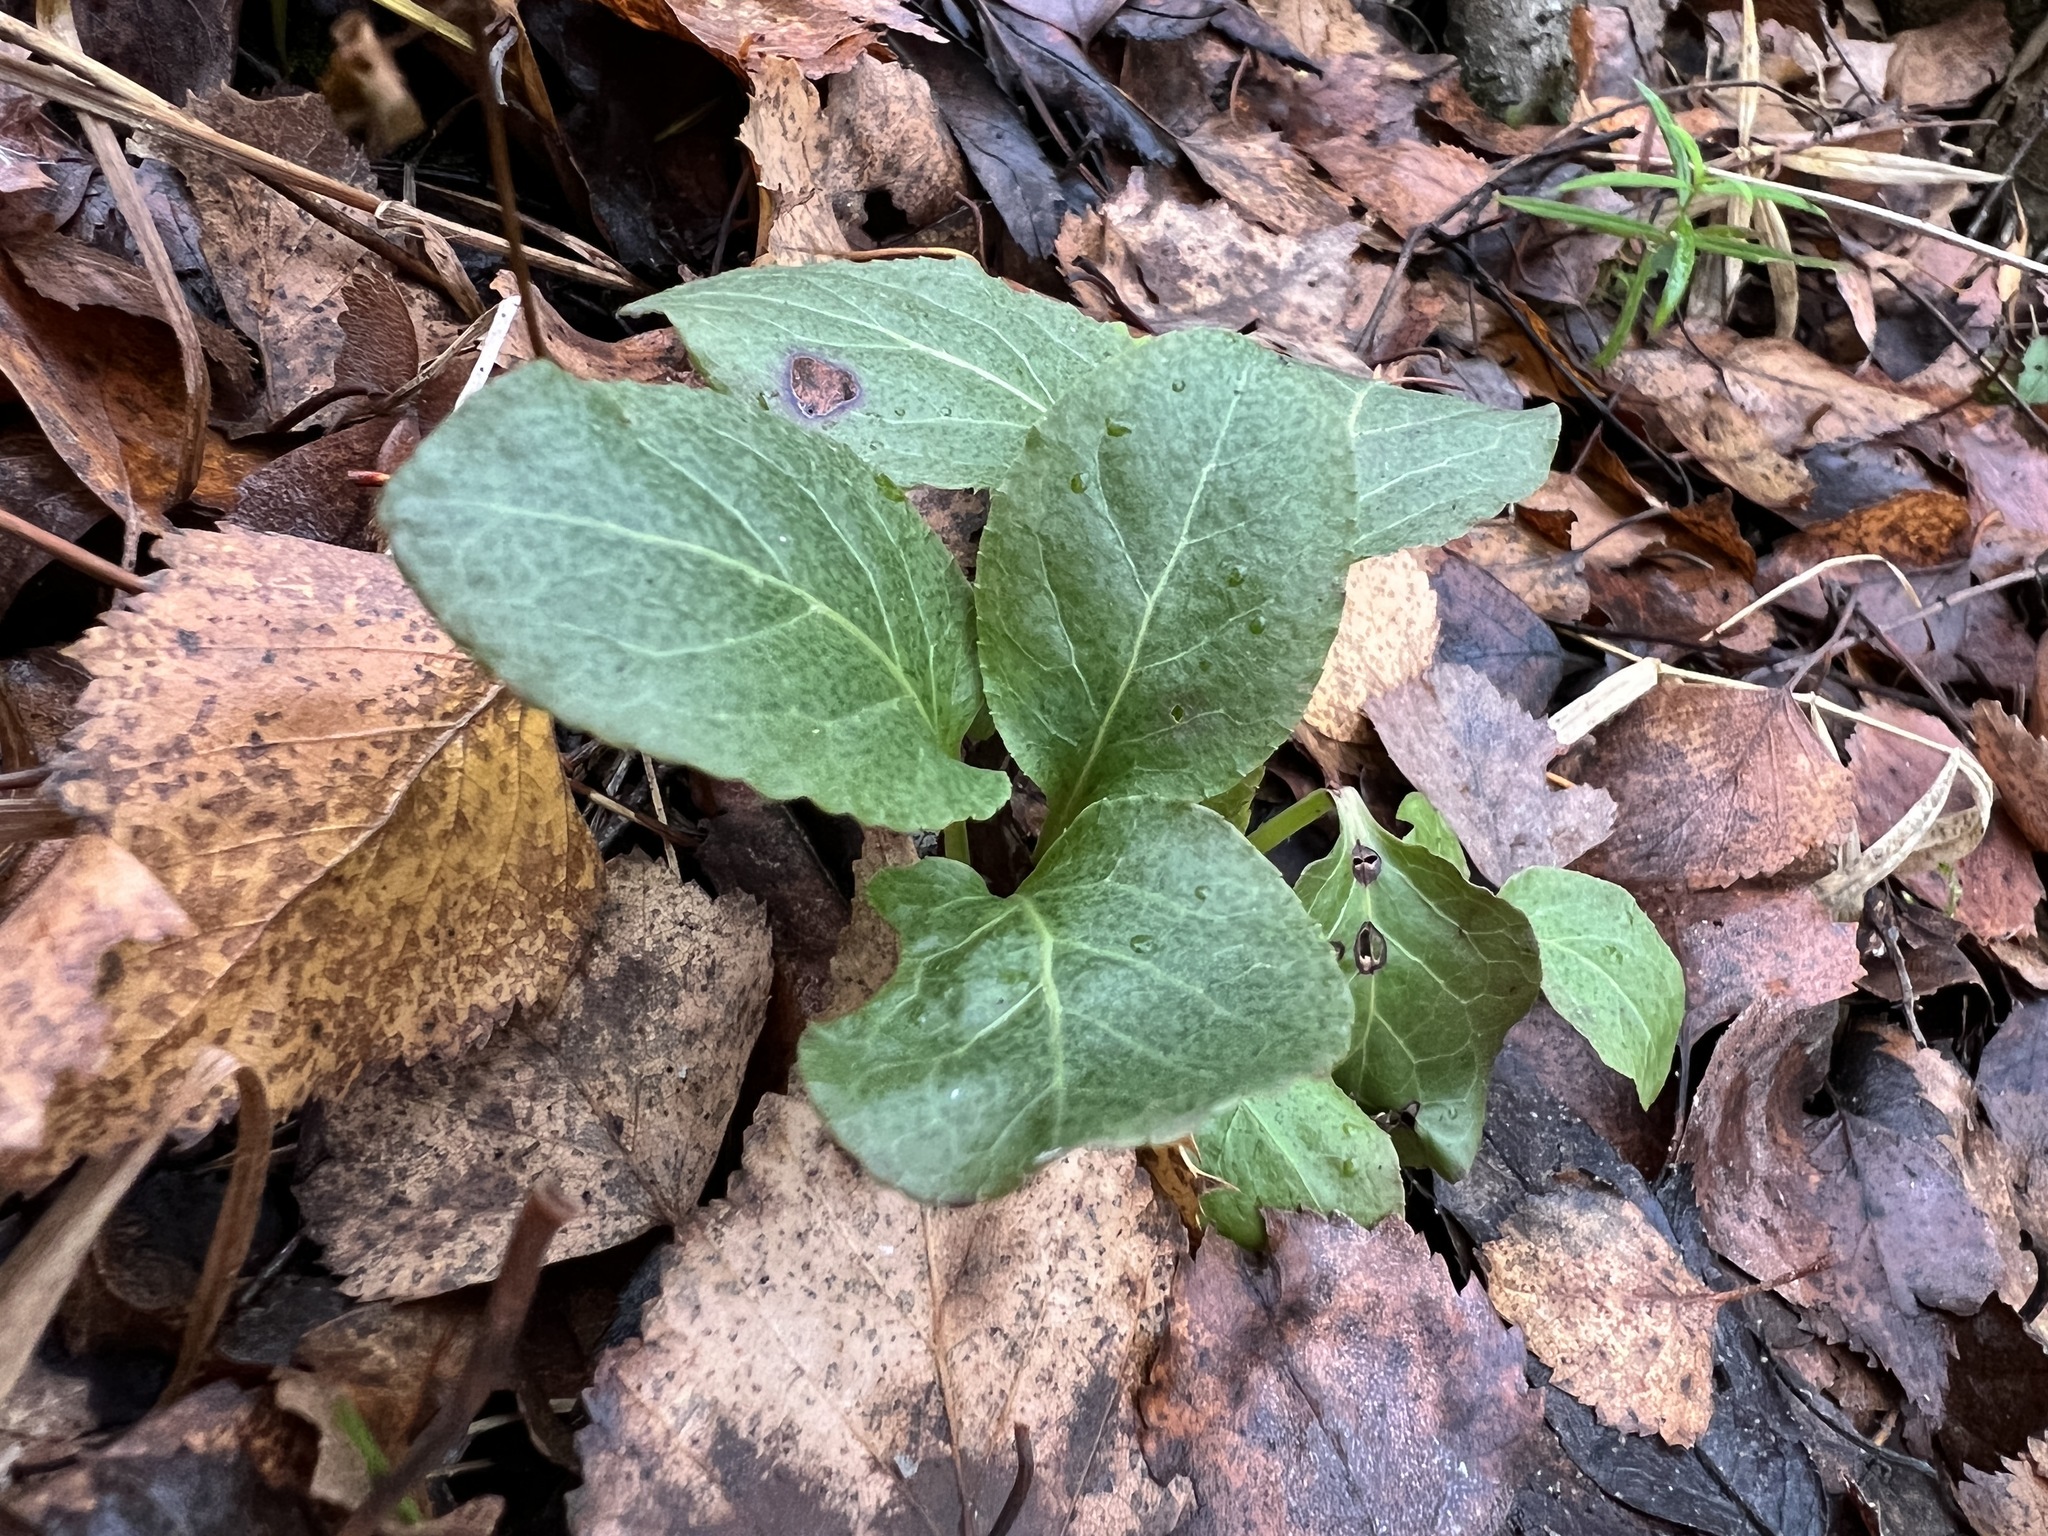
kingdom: Plantae
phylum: Tracheophyta
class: Magnoliopsida
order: Ericales
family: Ericaceae
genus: Pyrola
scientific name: Pyrola
